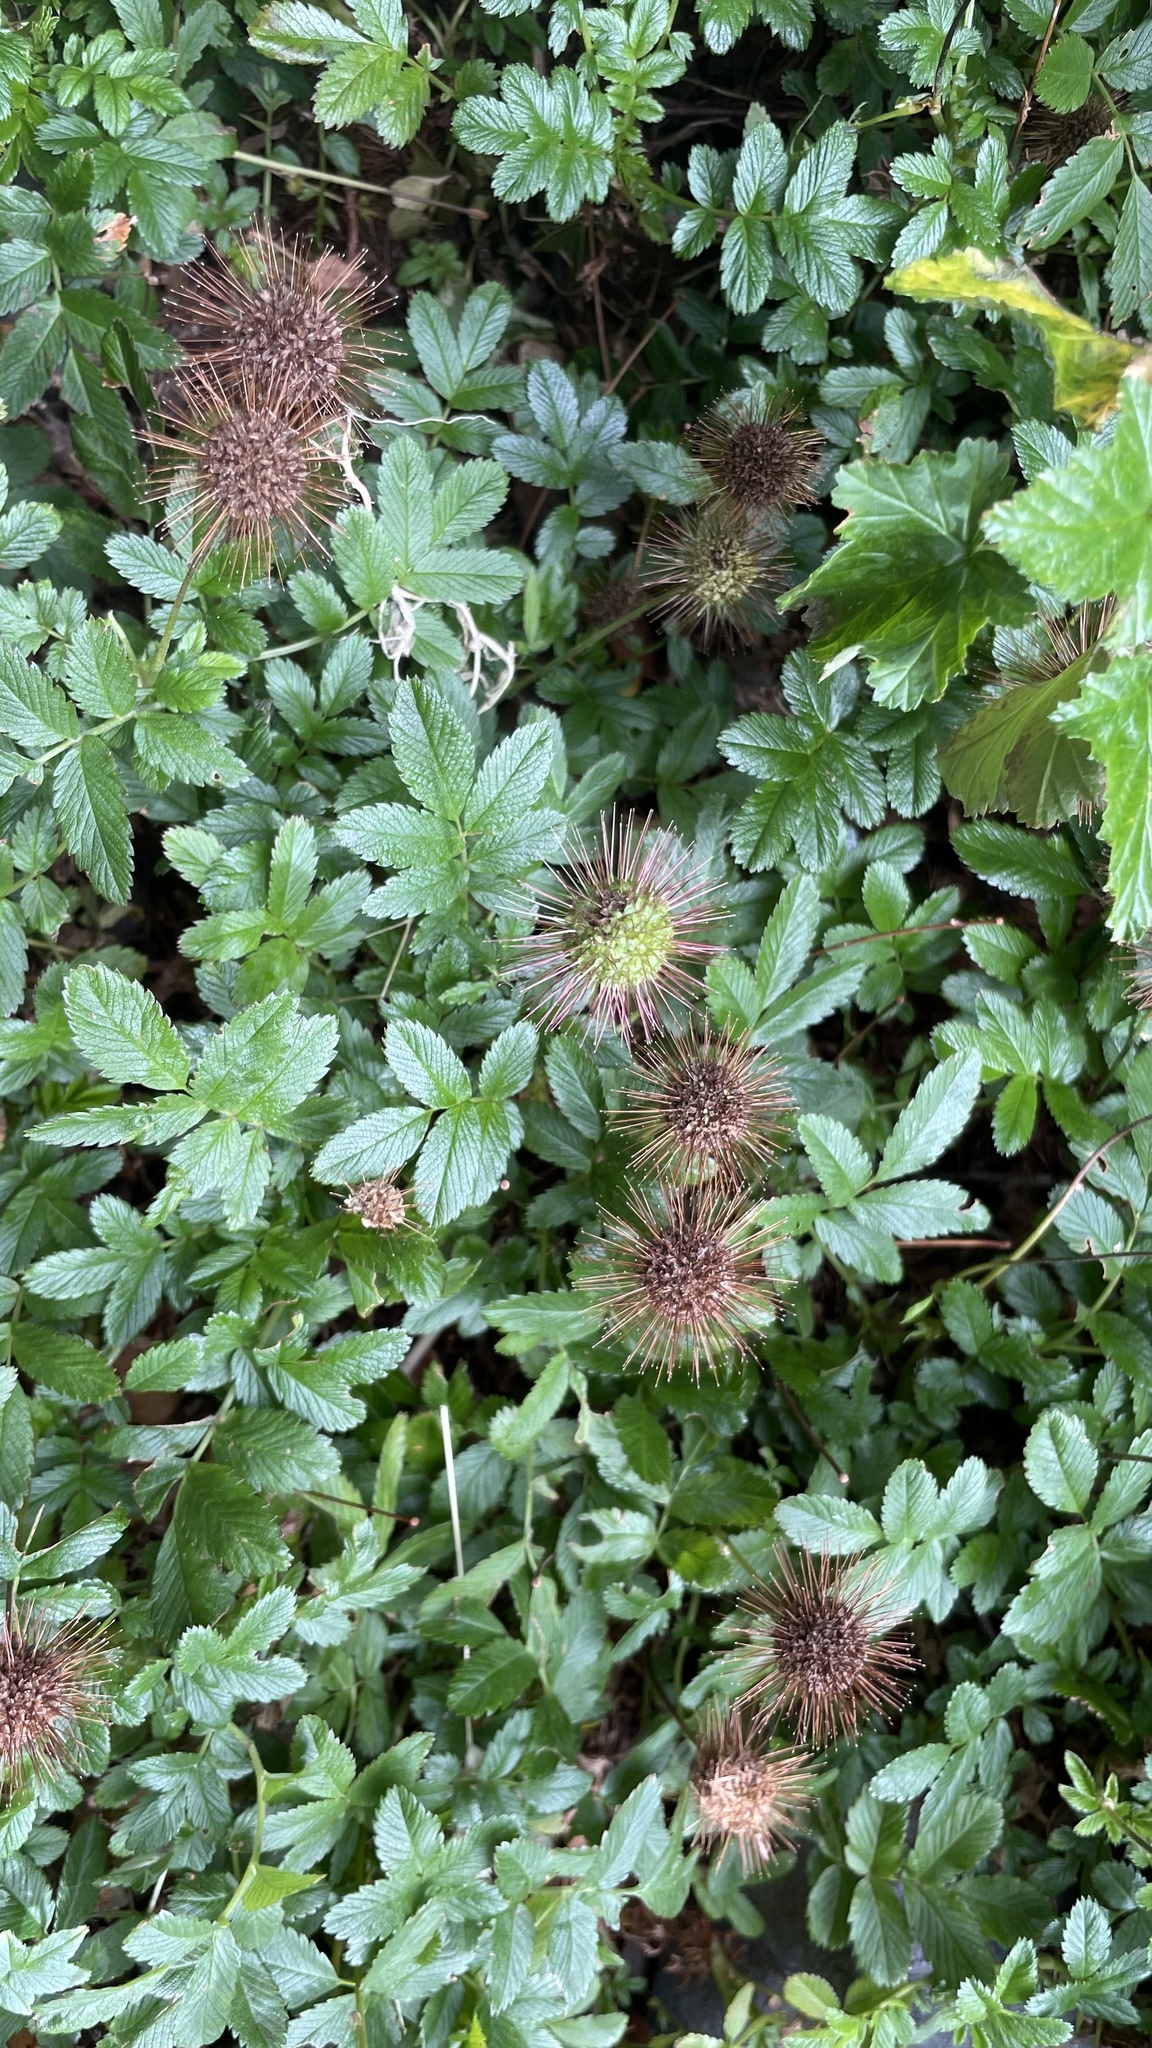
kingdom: Plantae
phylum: Tracheophyta
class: Magnoliopsida
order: Rosales
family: Rosaceae
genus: Acaena
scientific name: Acaena ovalifolia
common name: Two-spined acaena
